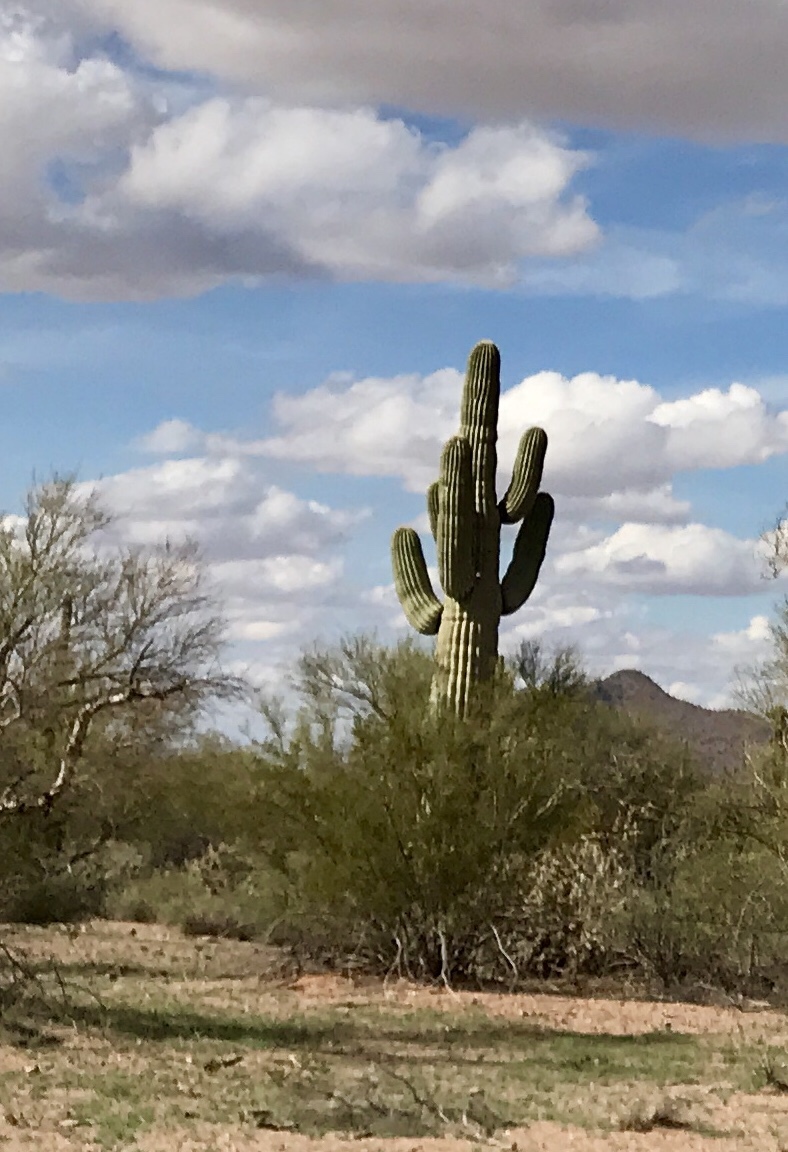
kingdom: Plantae
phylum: Tracheophyta
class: Magnoliopsida
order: Caryophyllales
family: Cactaceae
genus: Carnegiea
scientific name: Carnegiea gigantea
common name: Saguaro
